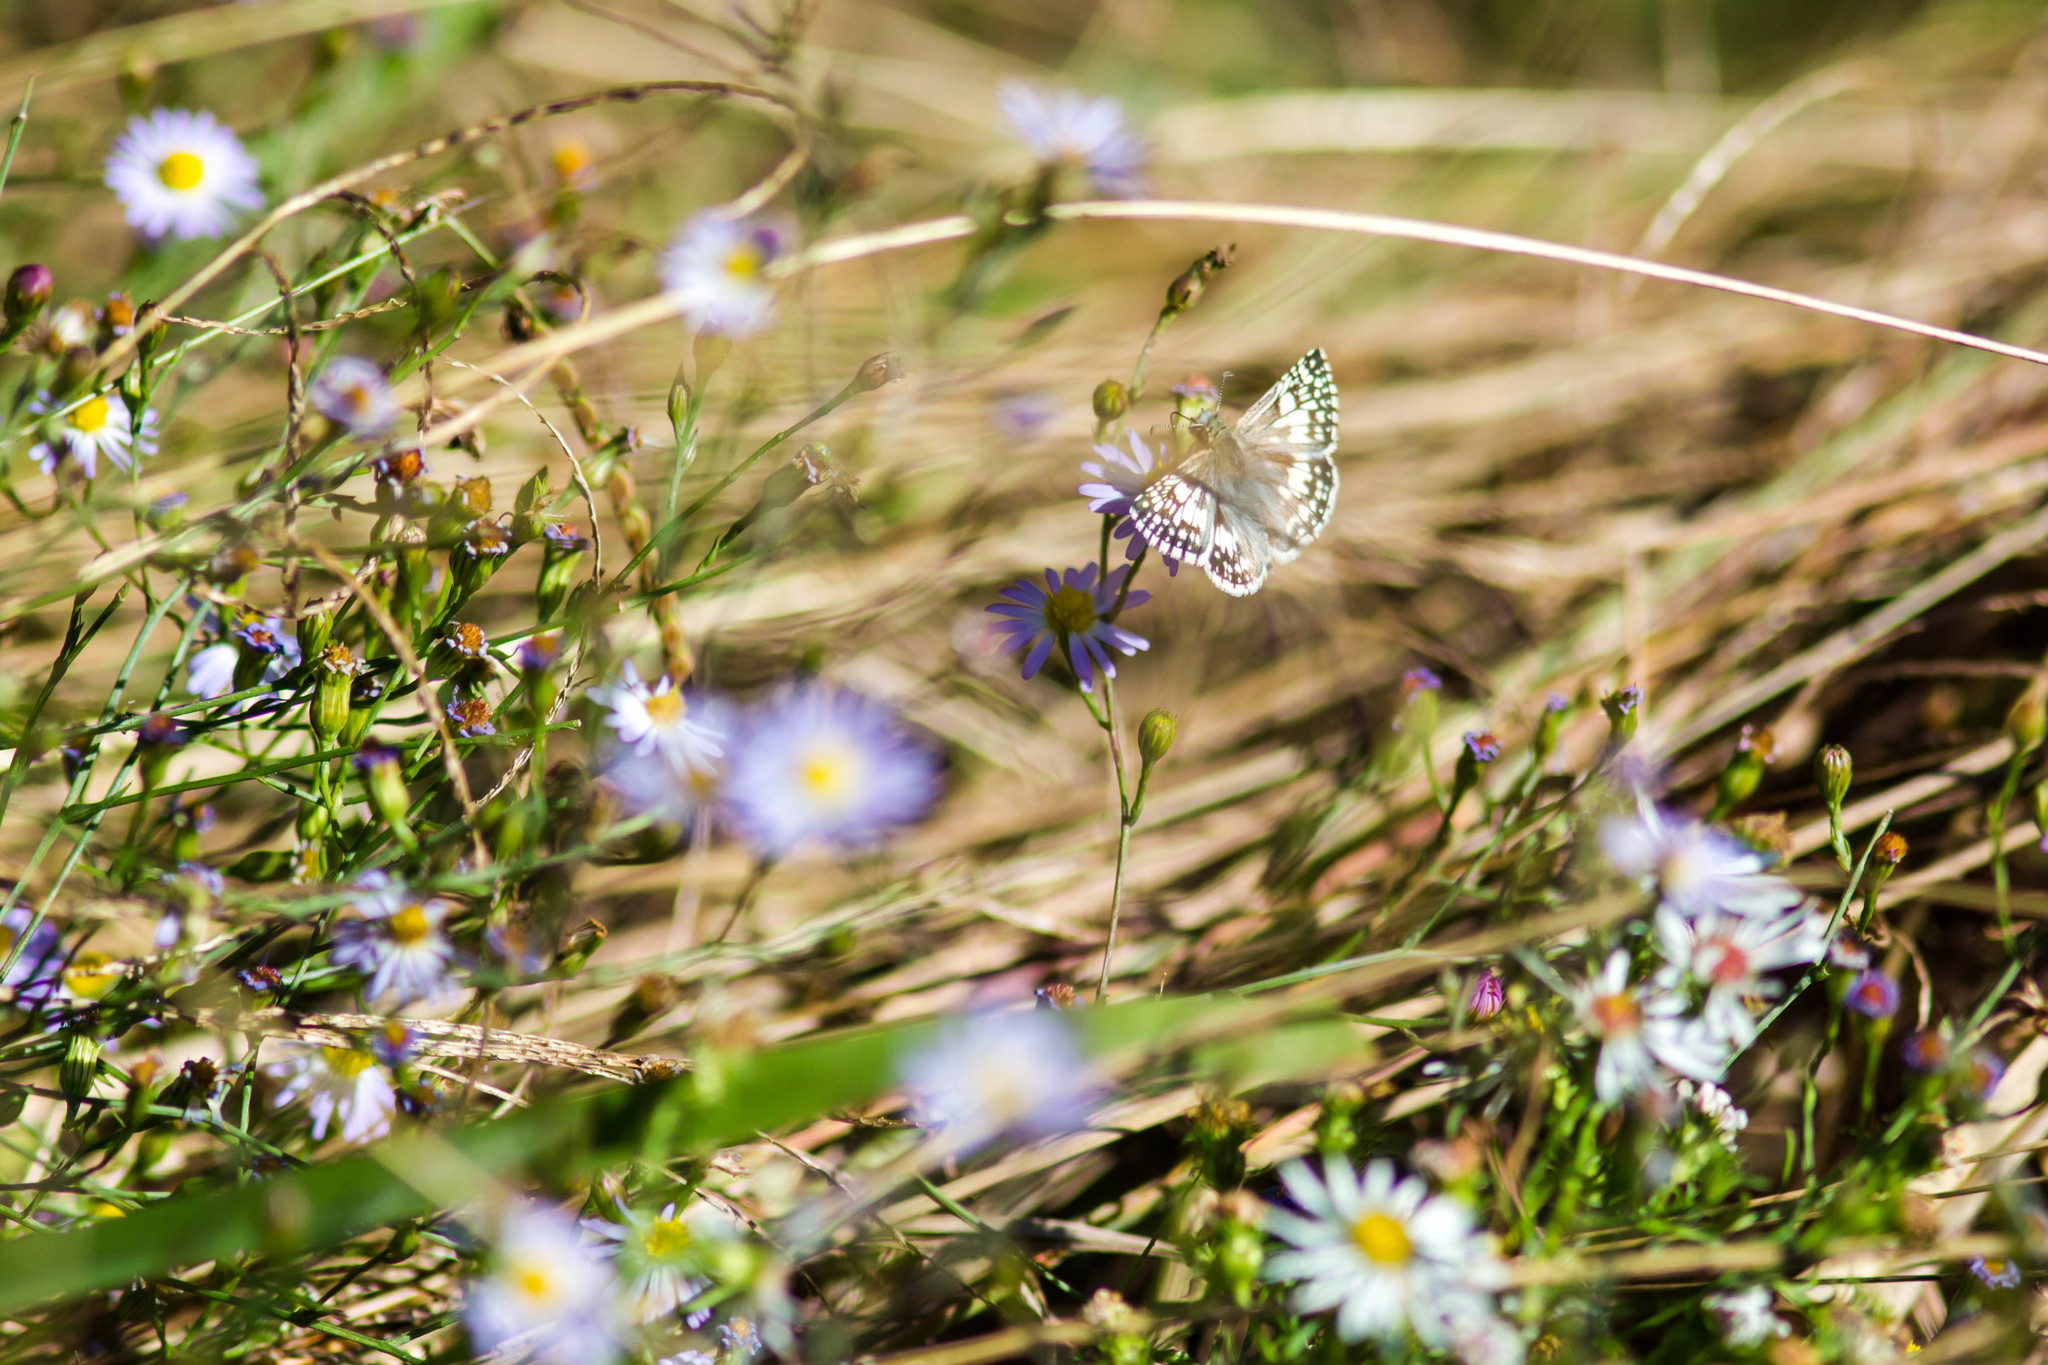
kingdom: Animalia
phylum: Arthropoda
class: Insecta
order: Lepidoptera
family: Hesperiidae
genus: Burnsius
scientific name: Burnsius communis
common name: Common checkered-skipper
